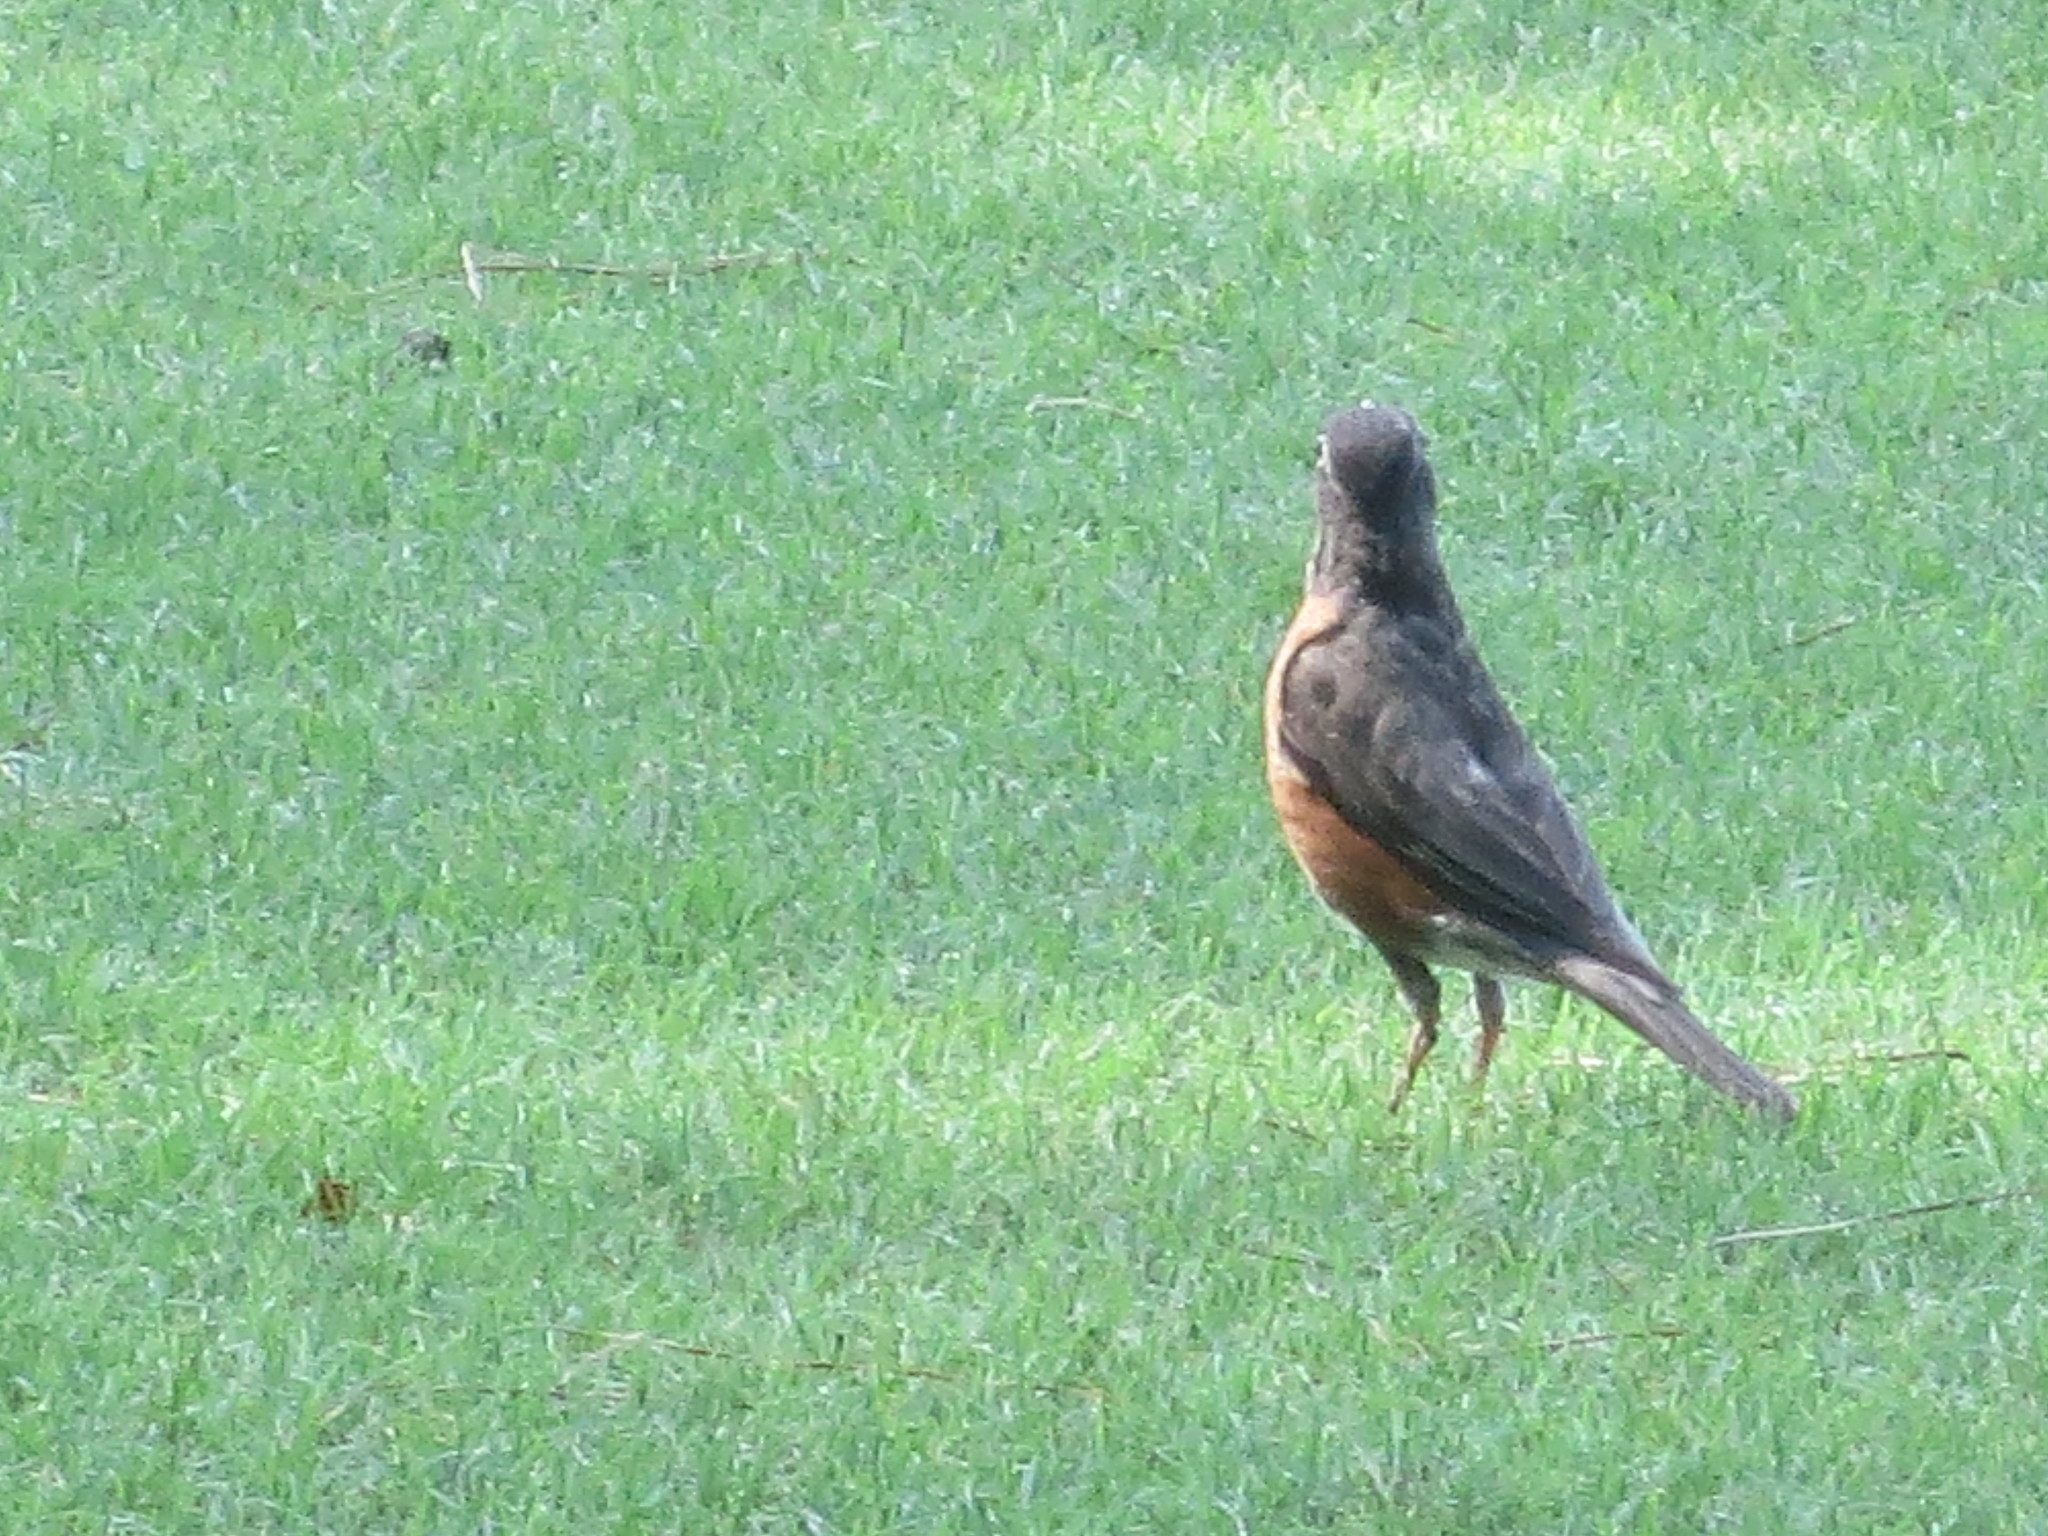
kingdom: Animalia
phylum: Chordata
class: Aves
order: Passeriformes
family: Turdidae
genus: Turdus
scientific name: Turdus migratorius
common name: American robin
